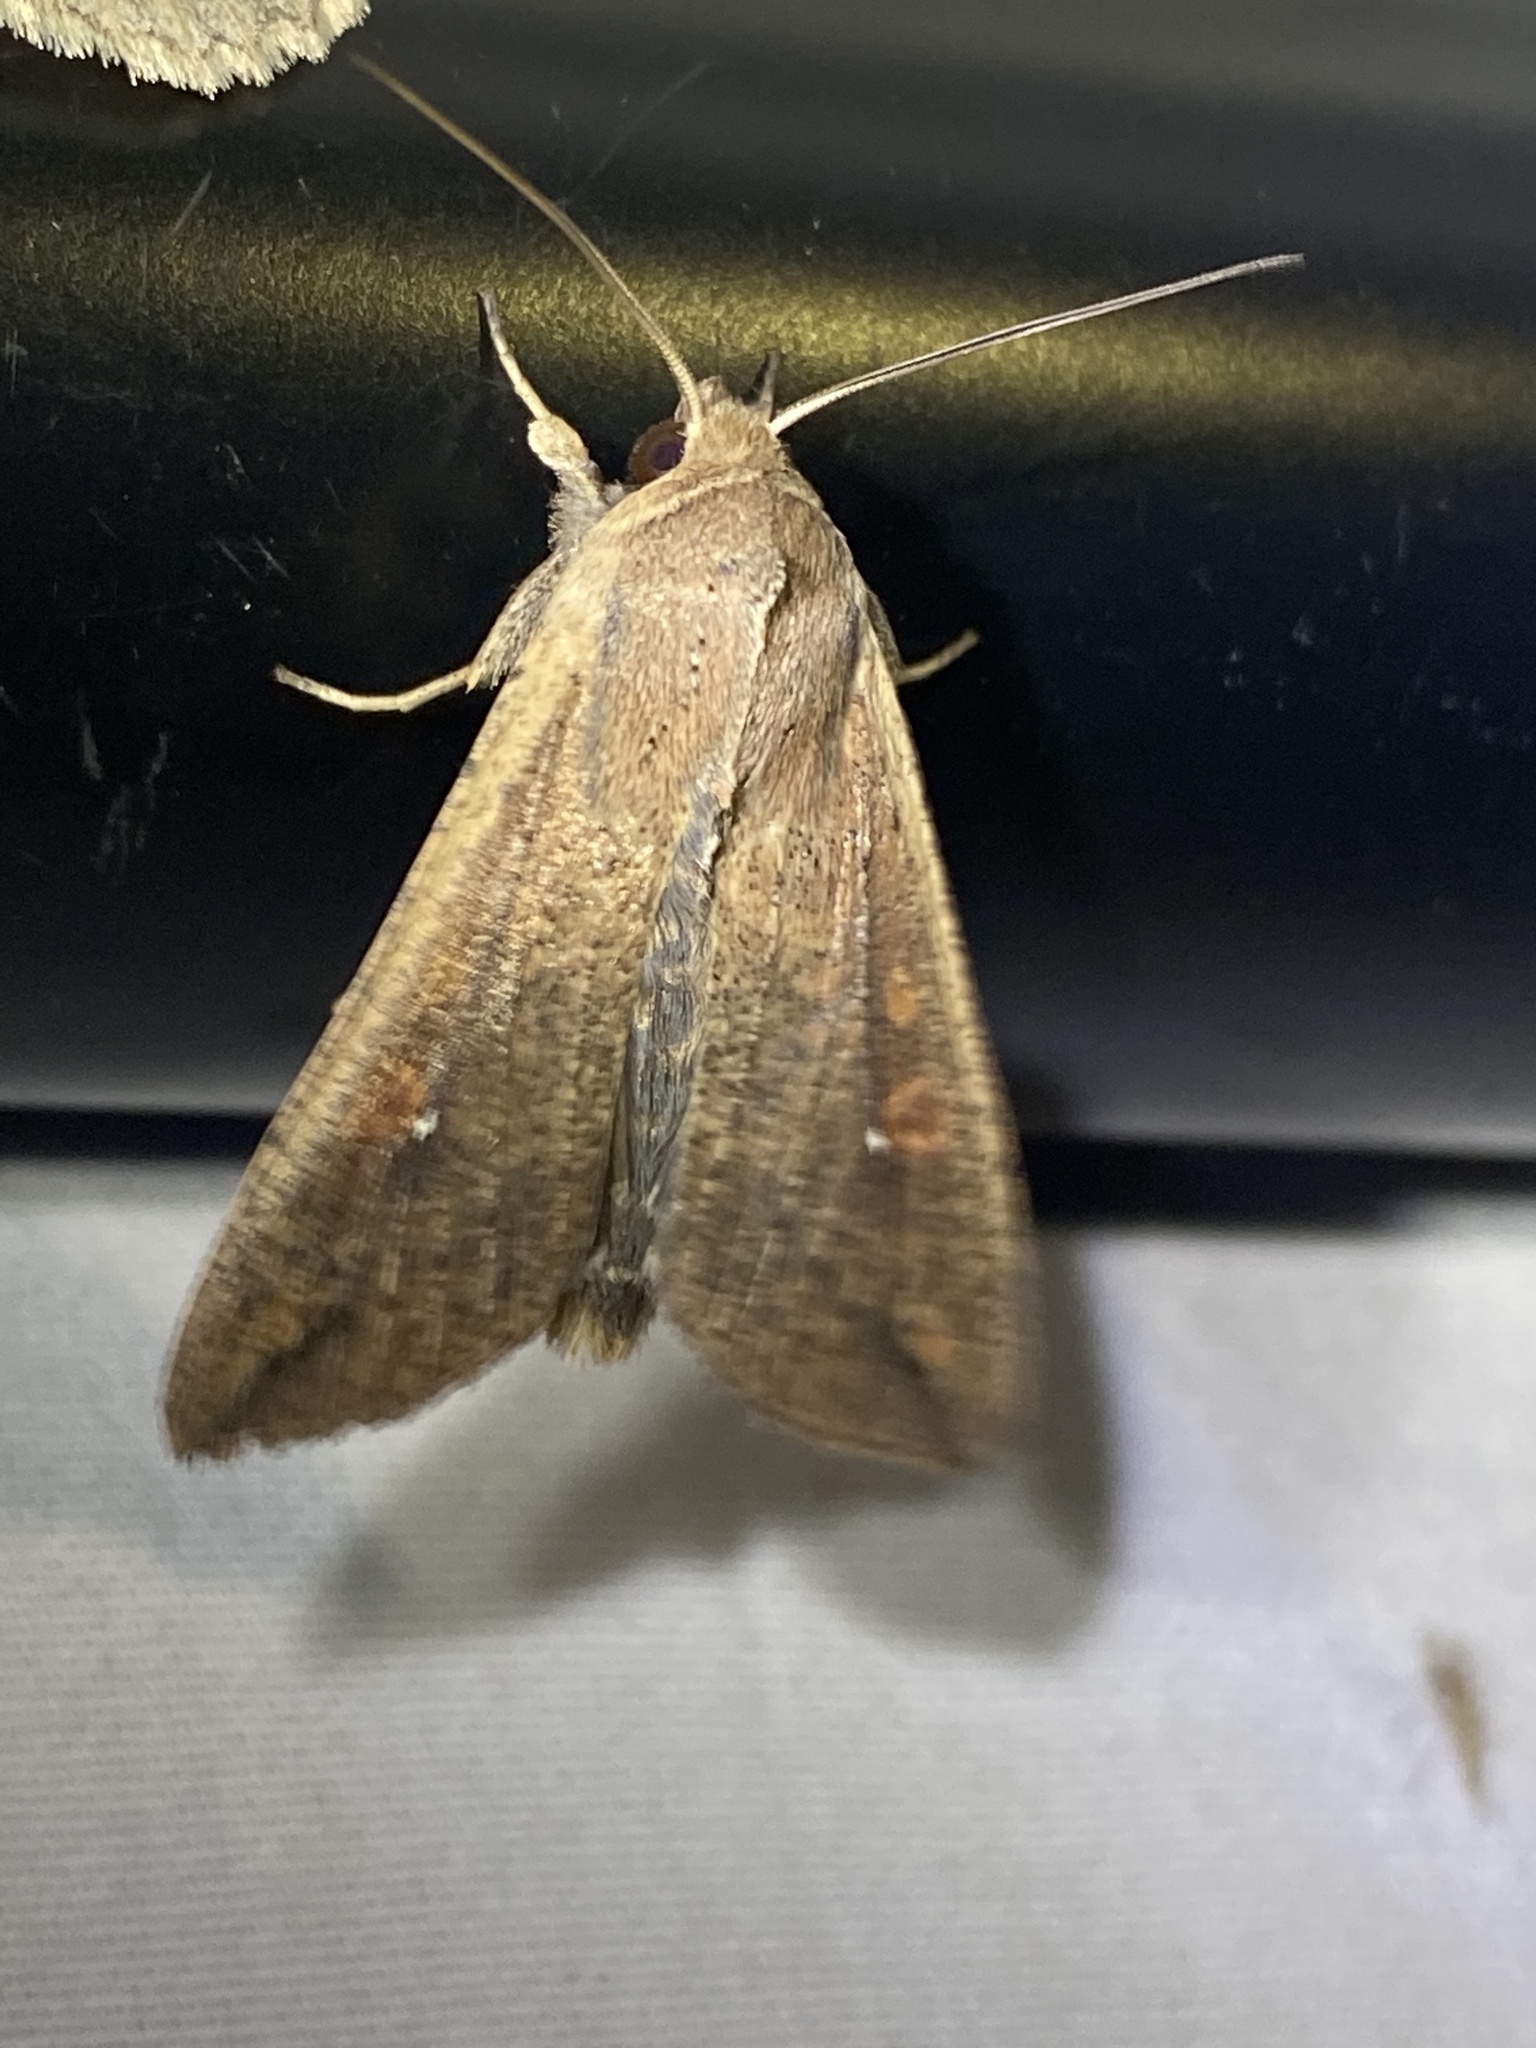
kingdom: Animalia
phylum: Arthropoda
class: Insecta
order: Lepidoptera
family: Noctuidae
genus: Mythimna
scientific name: Mythimna unipuncta
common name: White-speck
